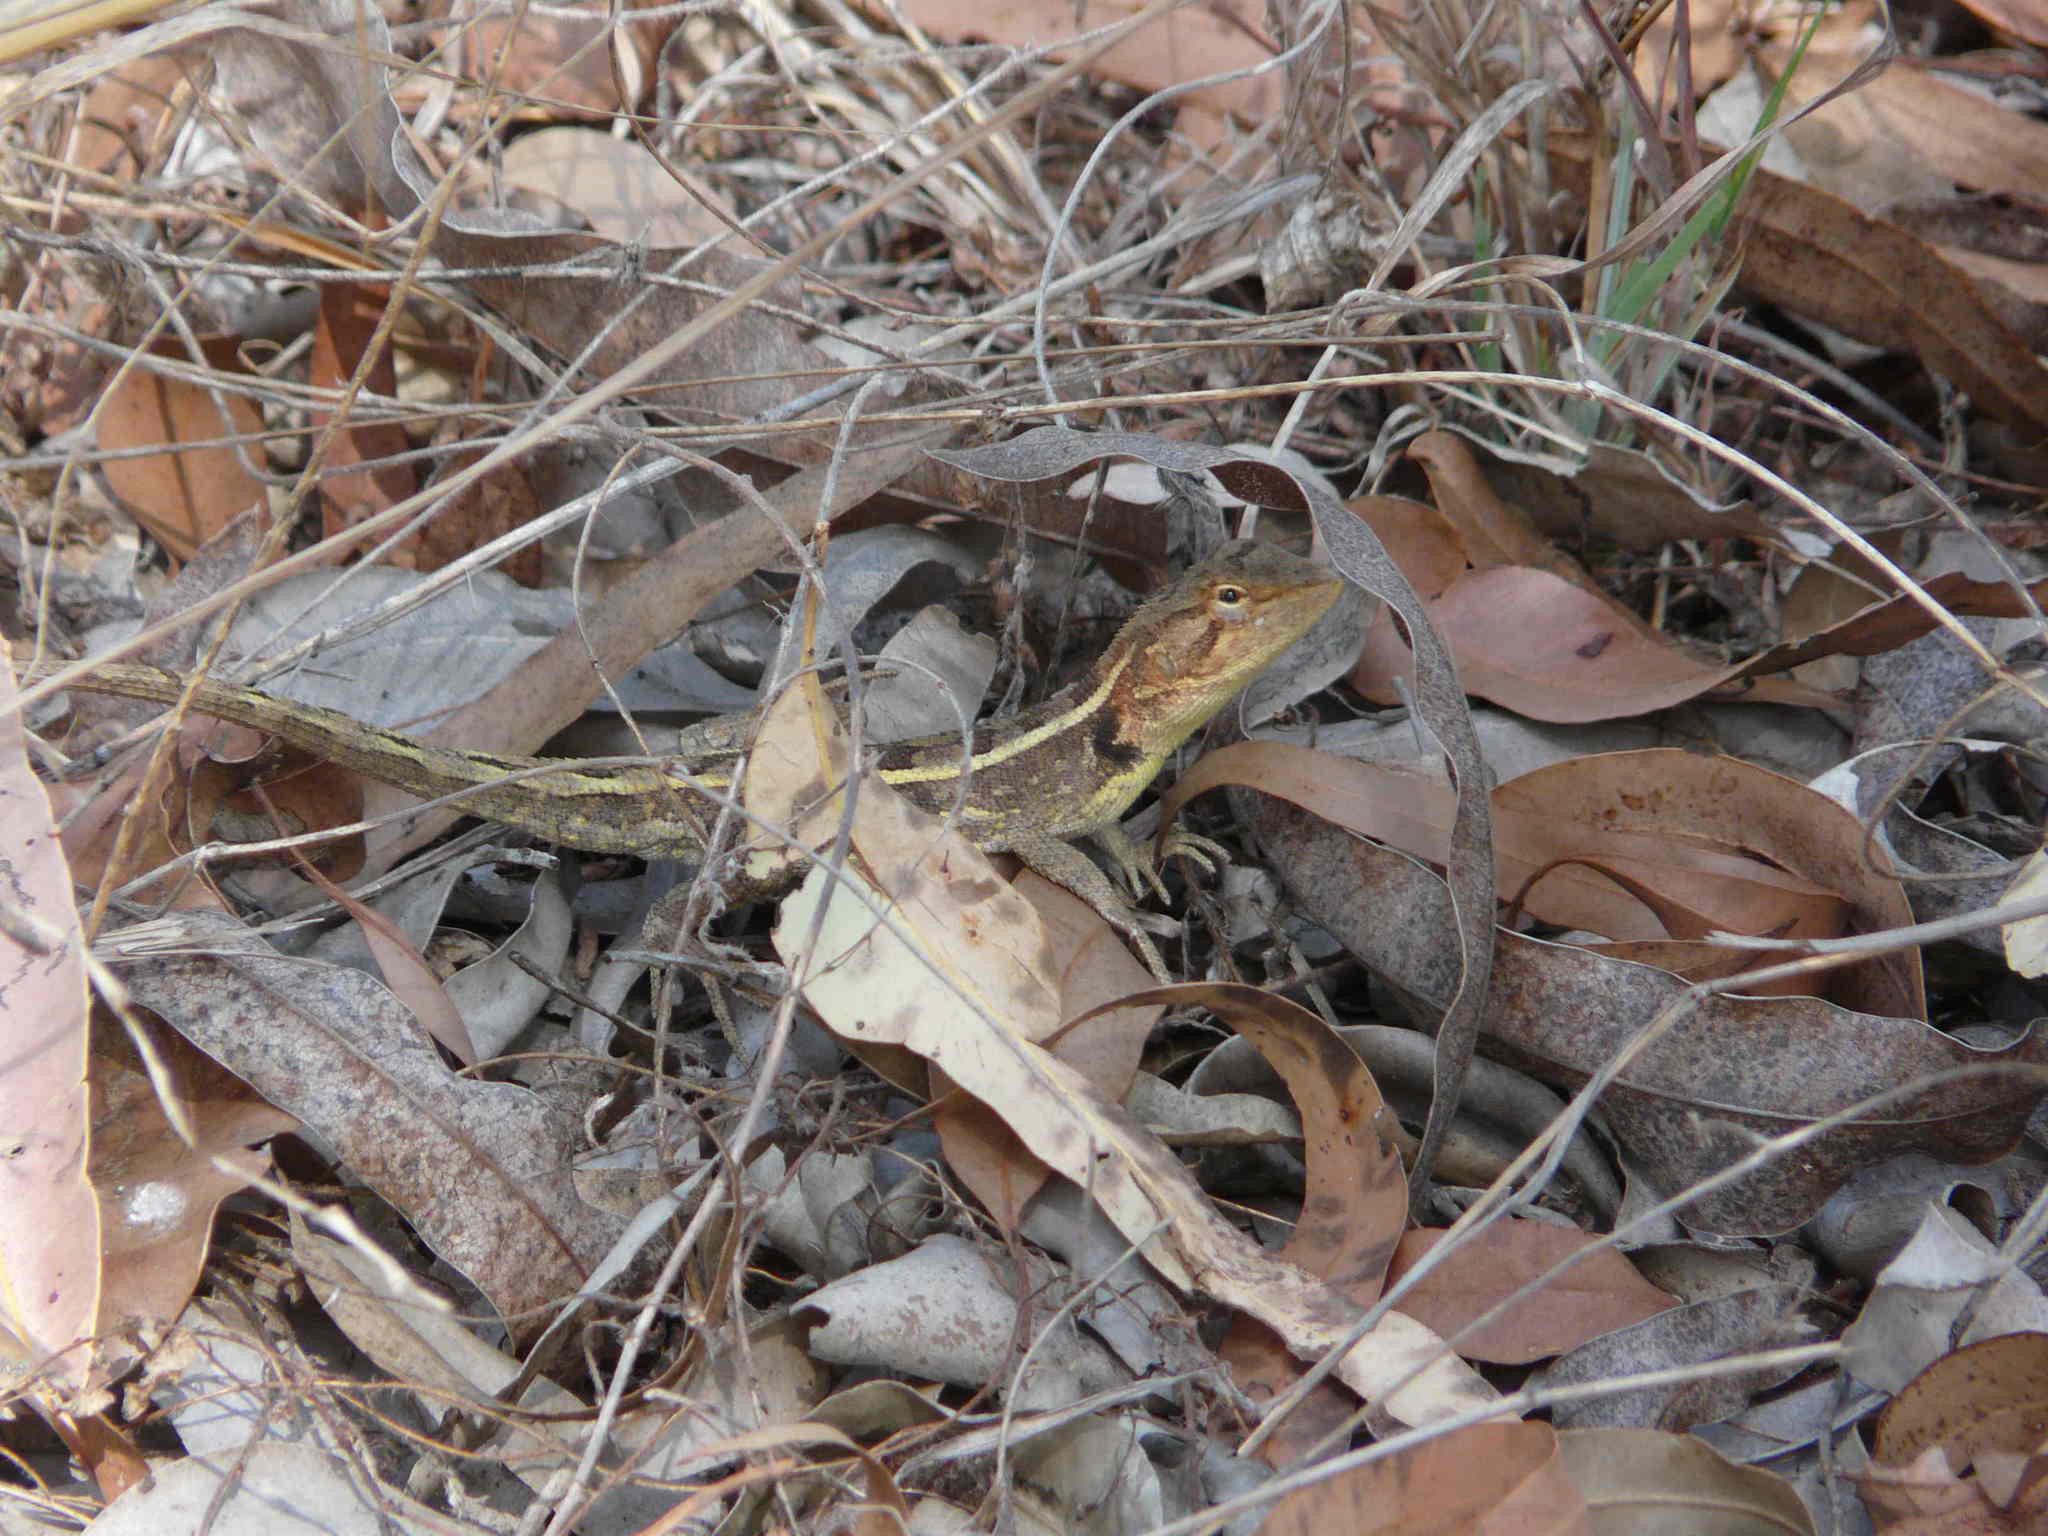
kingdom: Animalia
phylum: Chordata
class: Squamata
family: Agamidae
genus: Diporiphora
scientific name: Diporiphora australis
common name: Eastern two-line dragon
